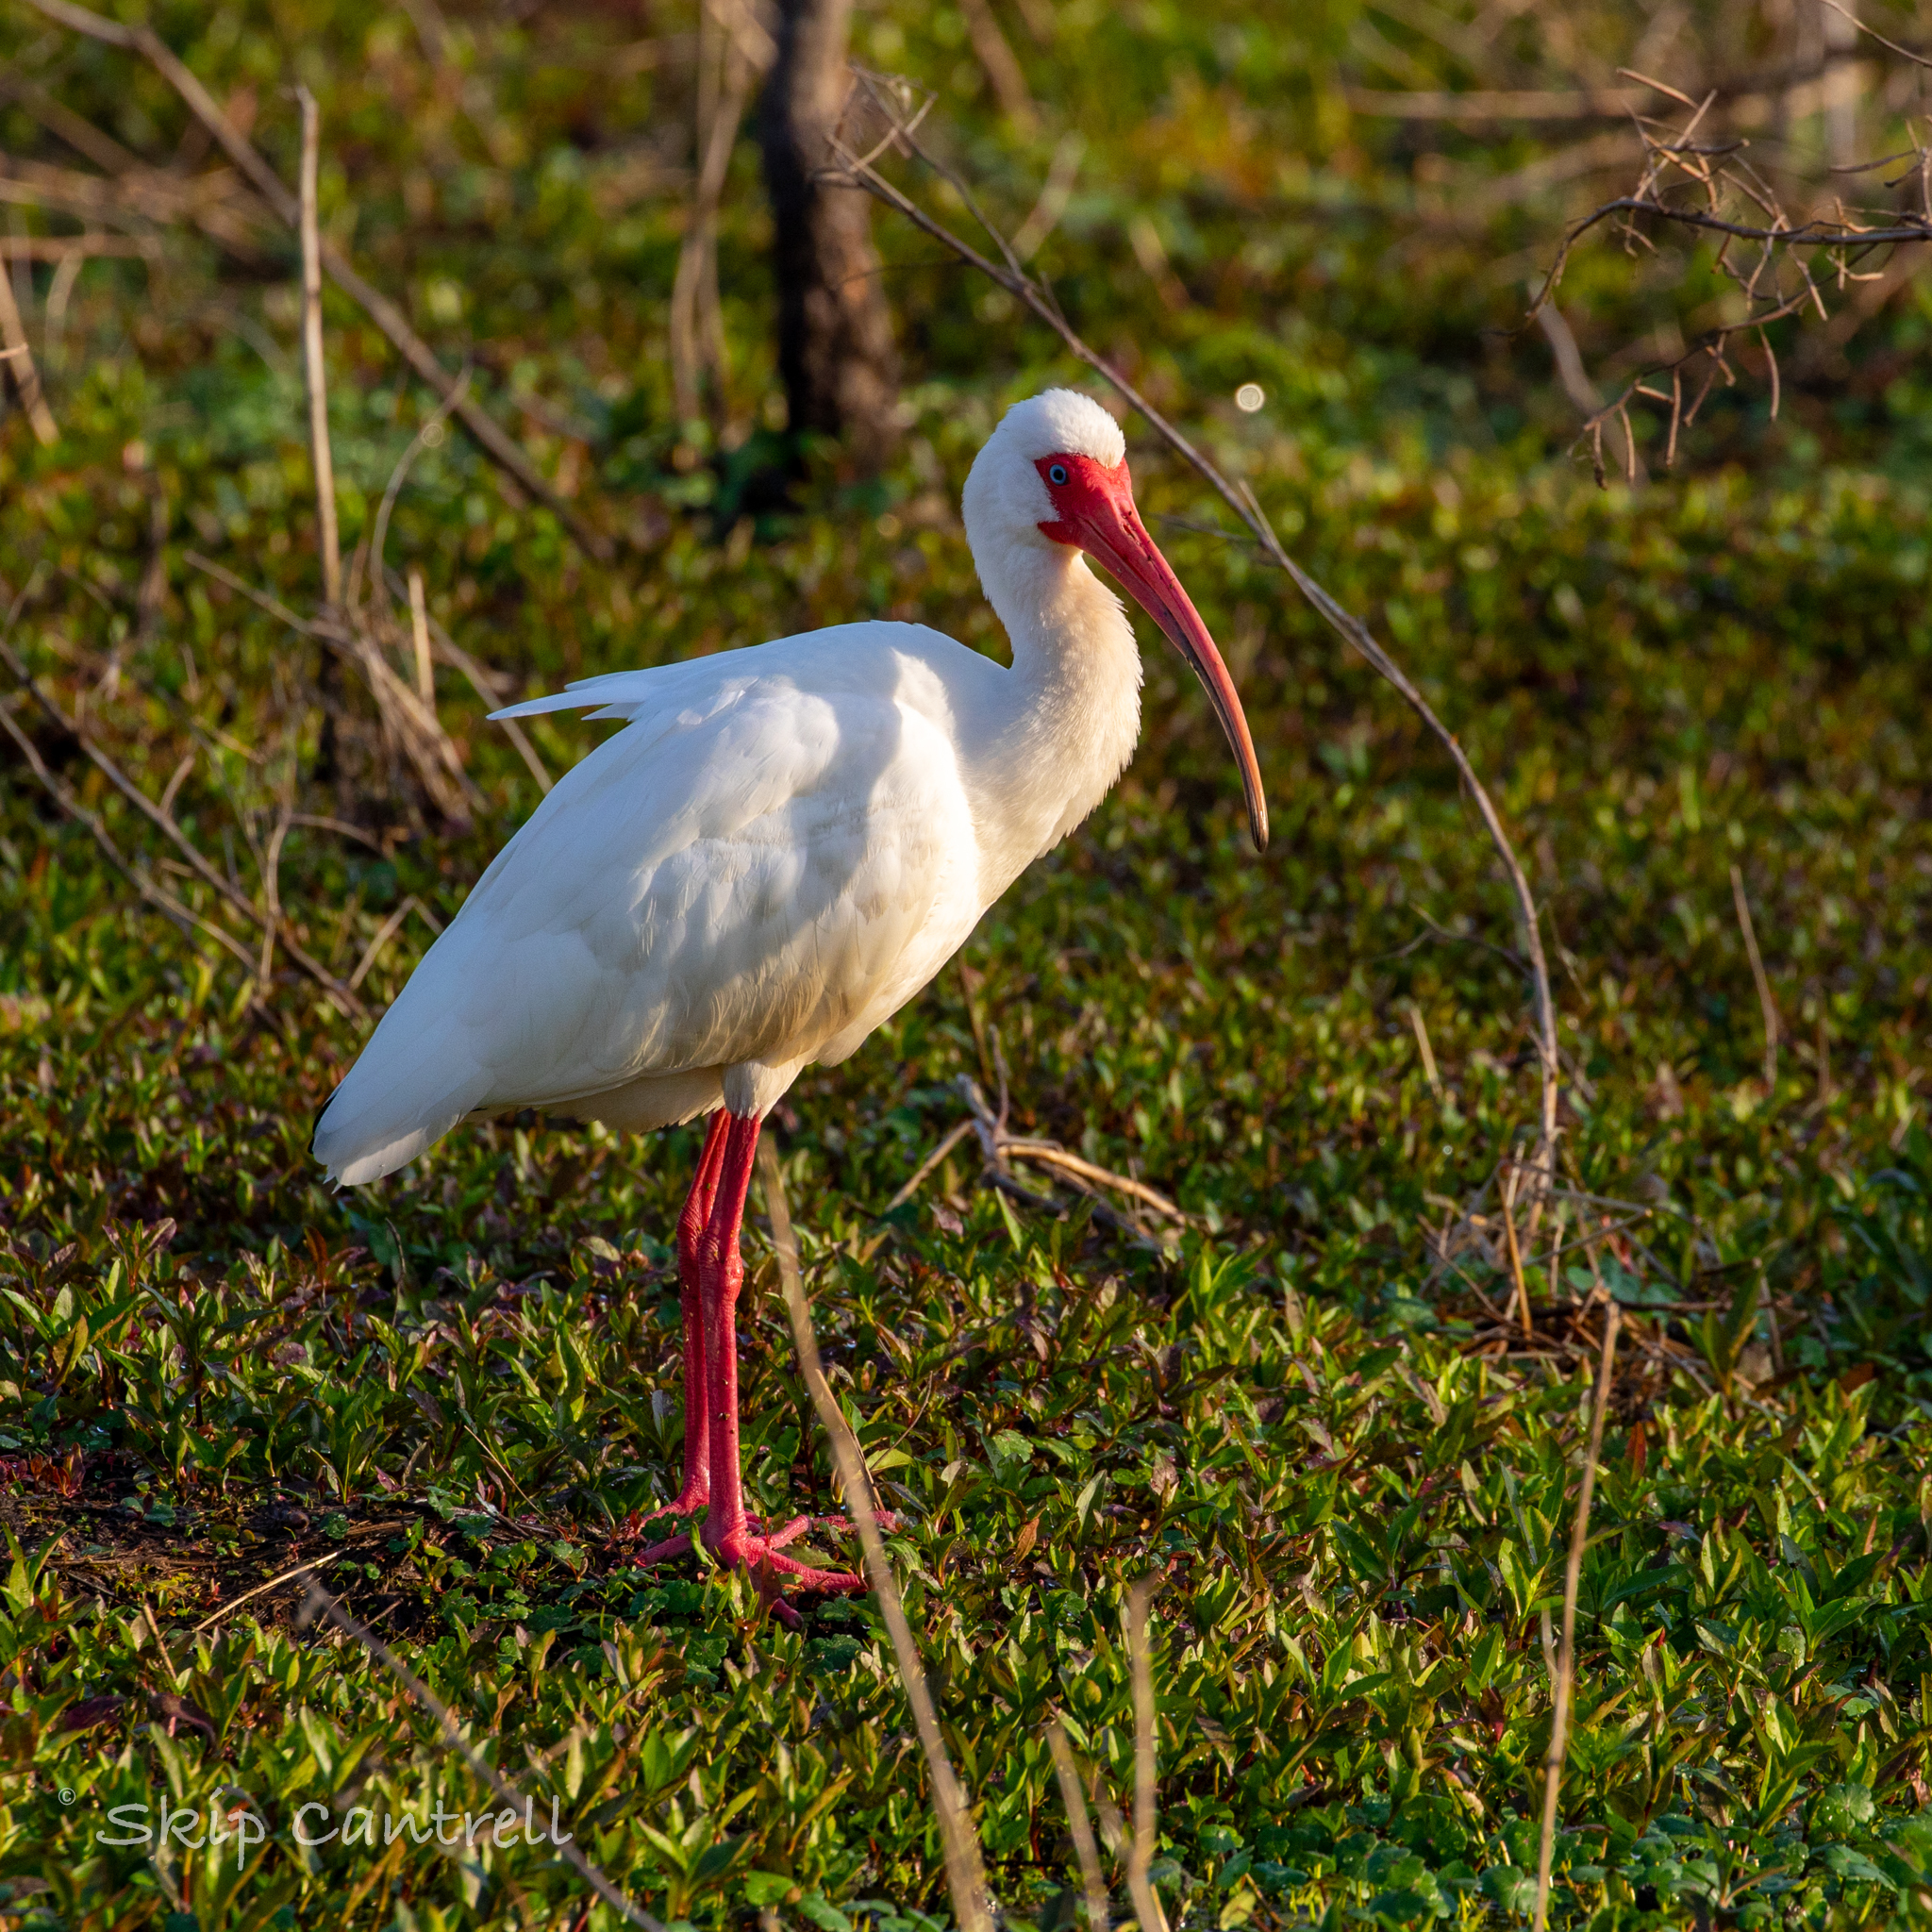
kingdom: Animalia
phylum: Chordata
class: Aves
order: Pelecaniformes
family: Threskiornithidae
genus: Eudocimus
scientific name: Eudocimus albus
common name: White ibis
